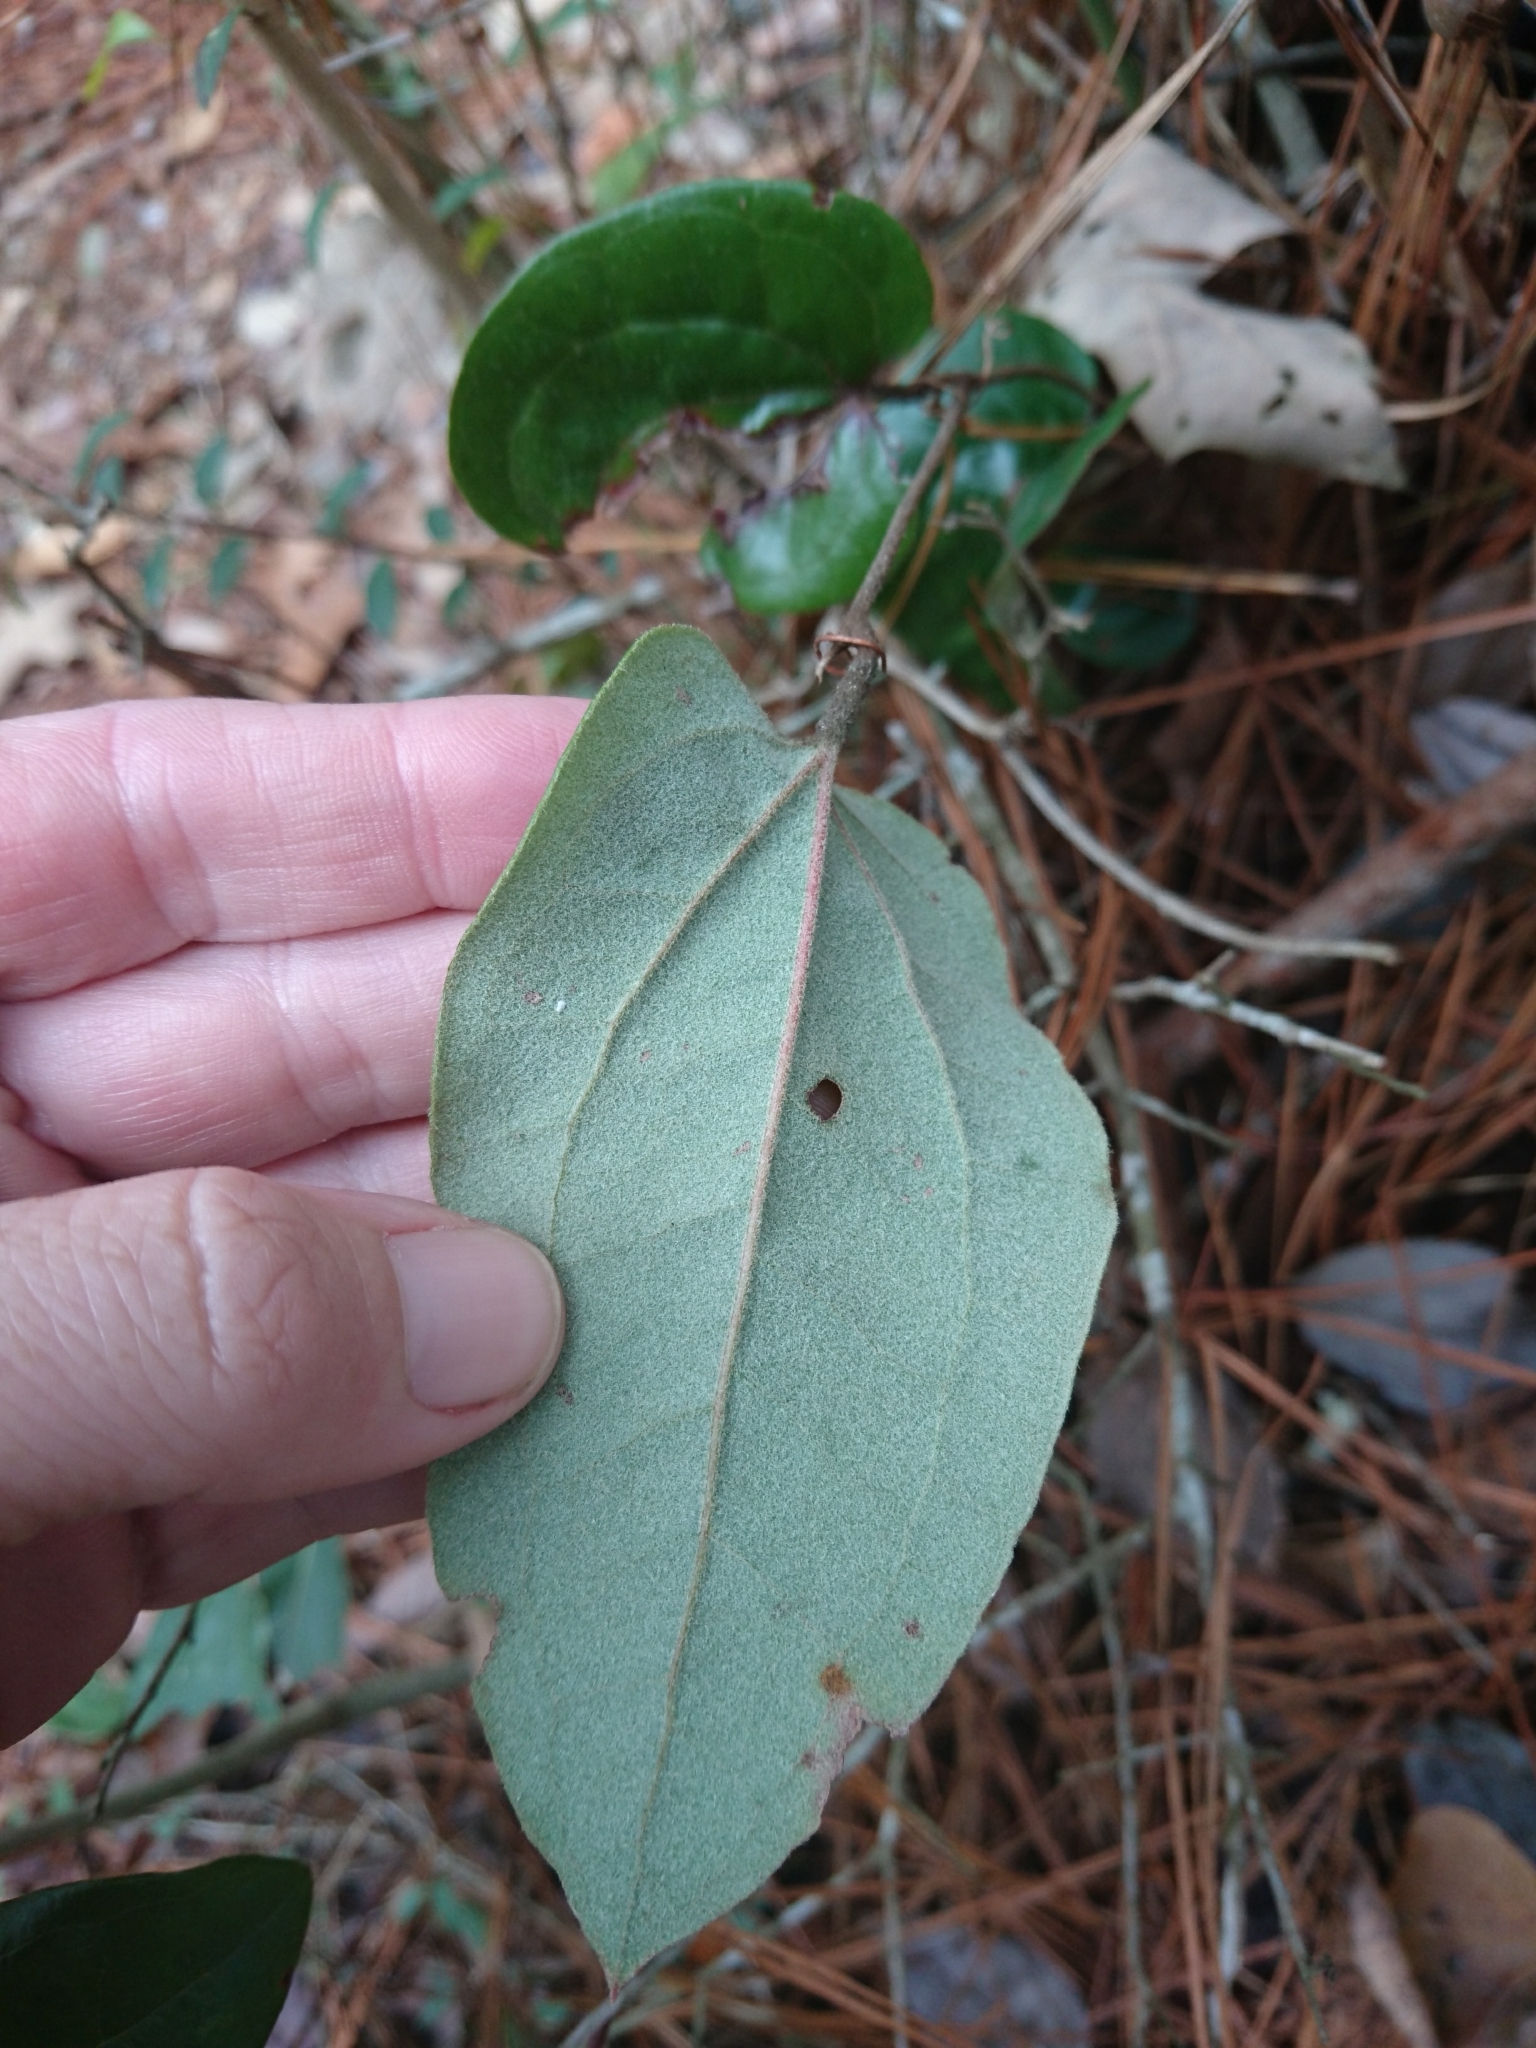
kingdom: Plantae
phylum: Tracheophyta
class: Liliopsida
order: Liliales
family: Smilacaceae
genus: Smilax
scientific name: Smilax pumila
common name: Sarsaparilla-vine
